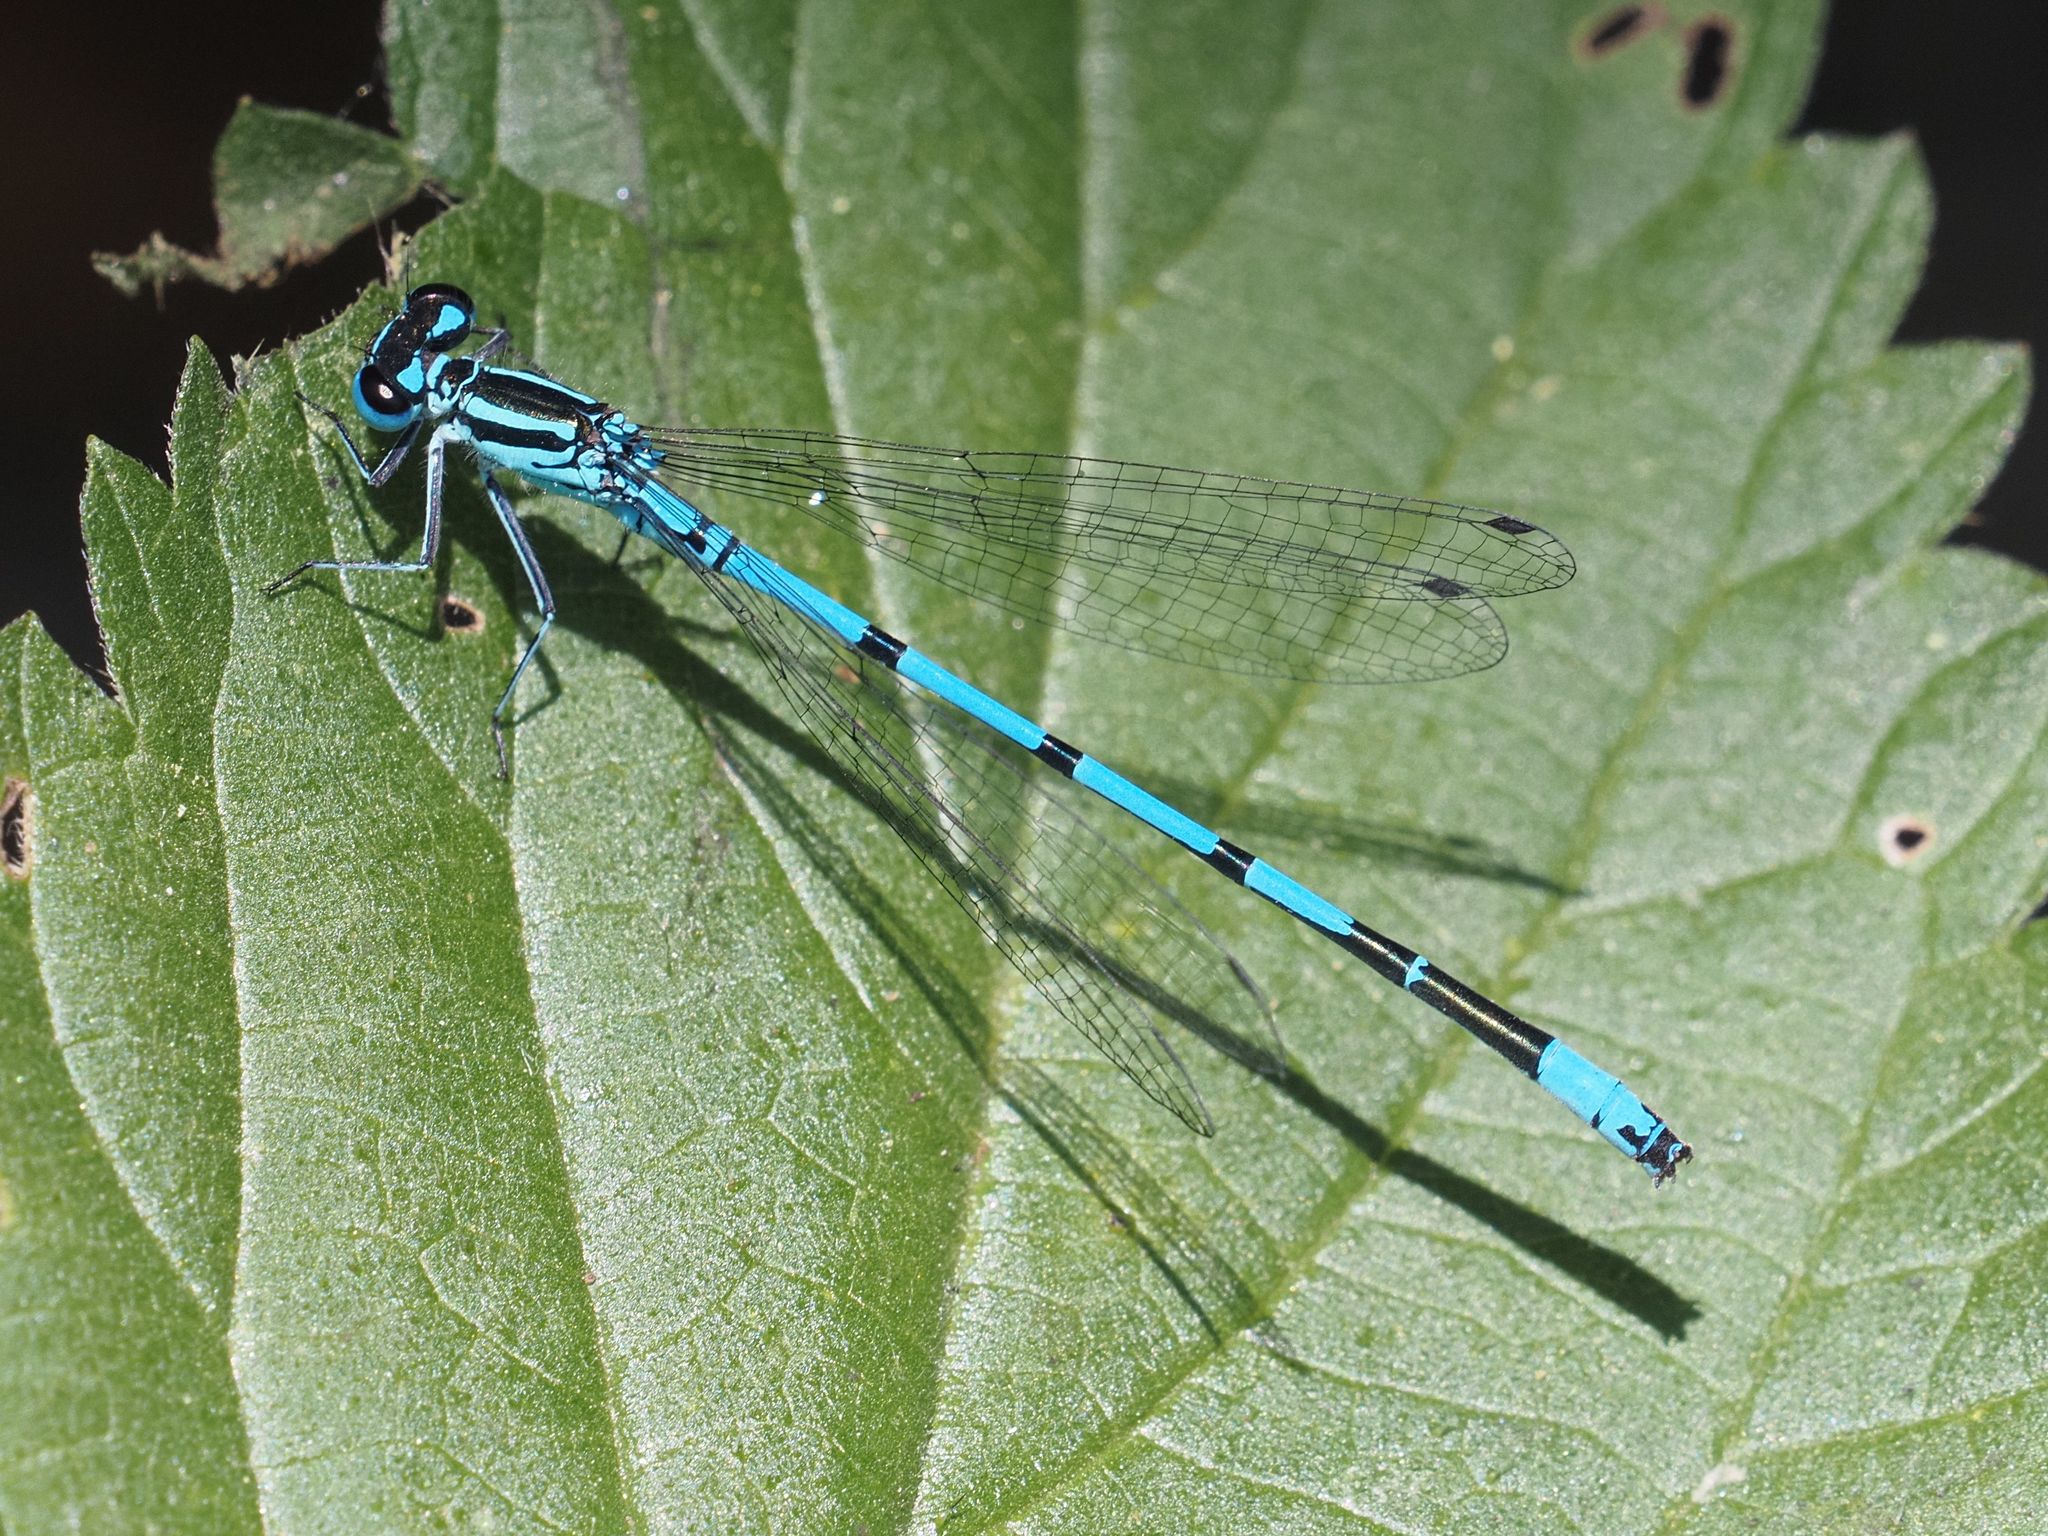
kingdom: Animalia
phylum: Arthropoda
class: Insecta
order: Odonata
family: Coenagrionidae
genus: Coenagrion
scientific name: Coenagrion puella
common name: Azure damselfly
